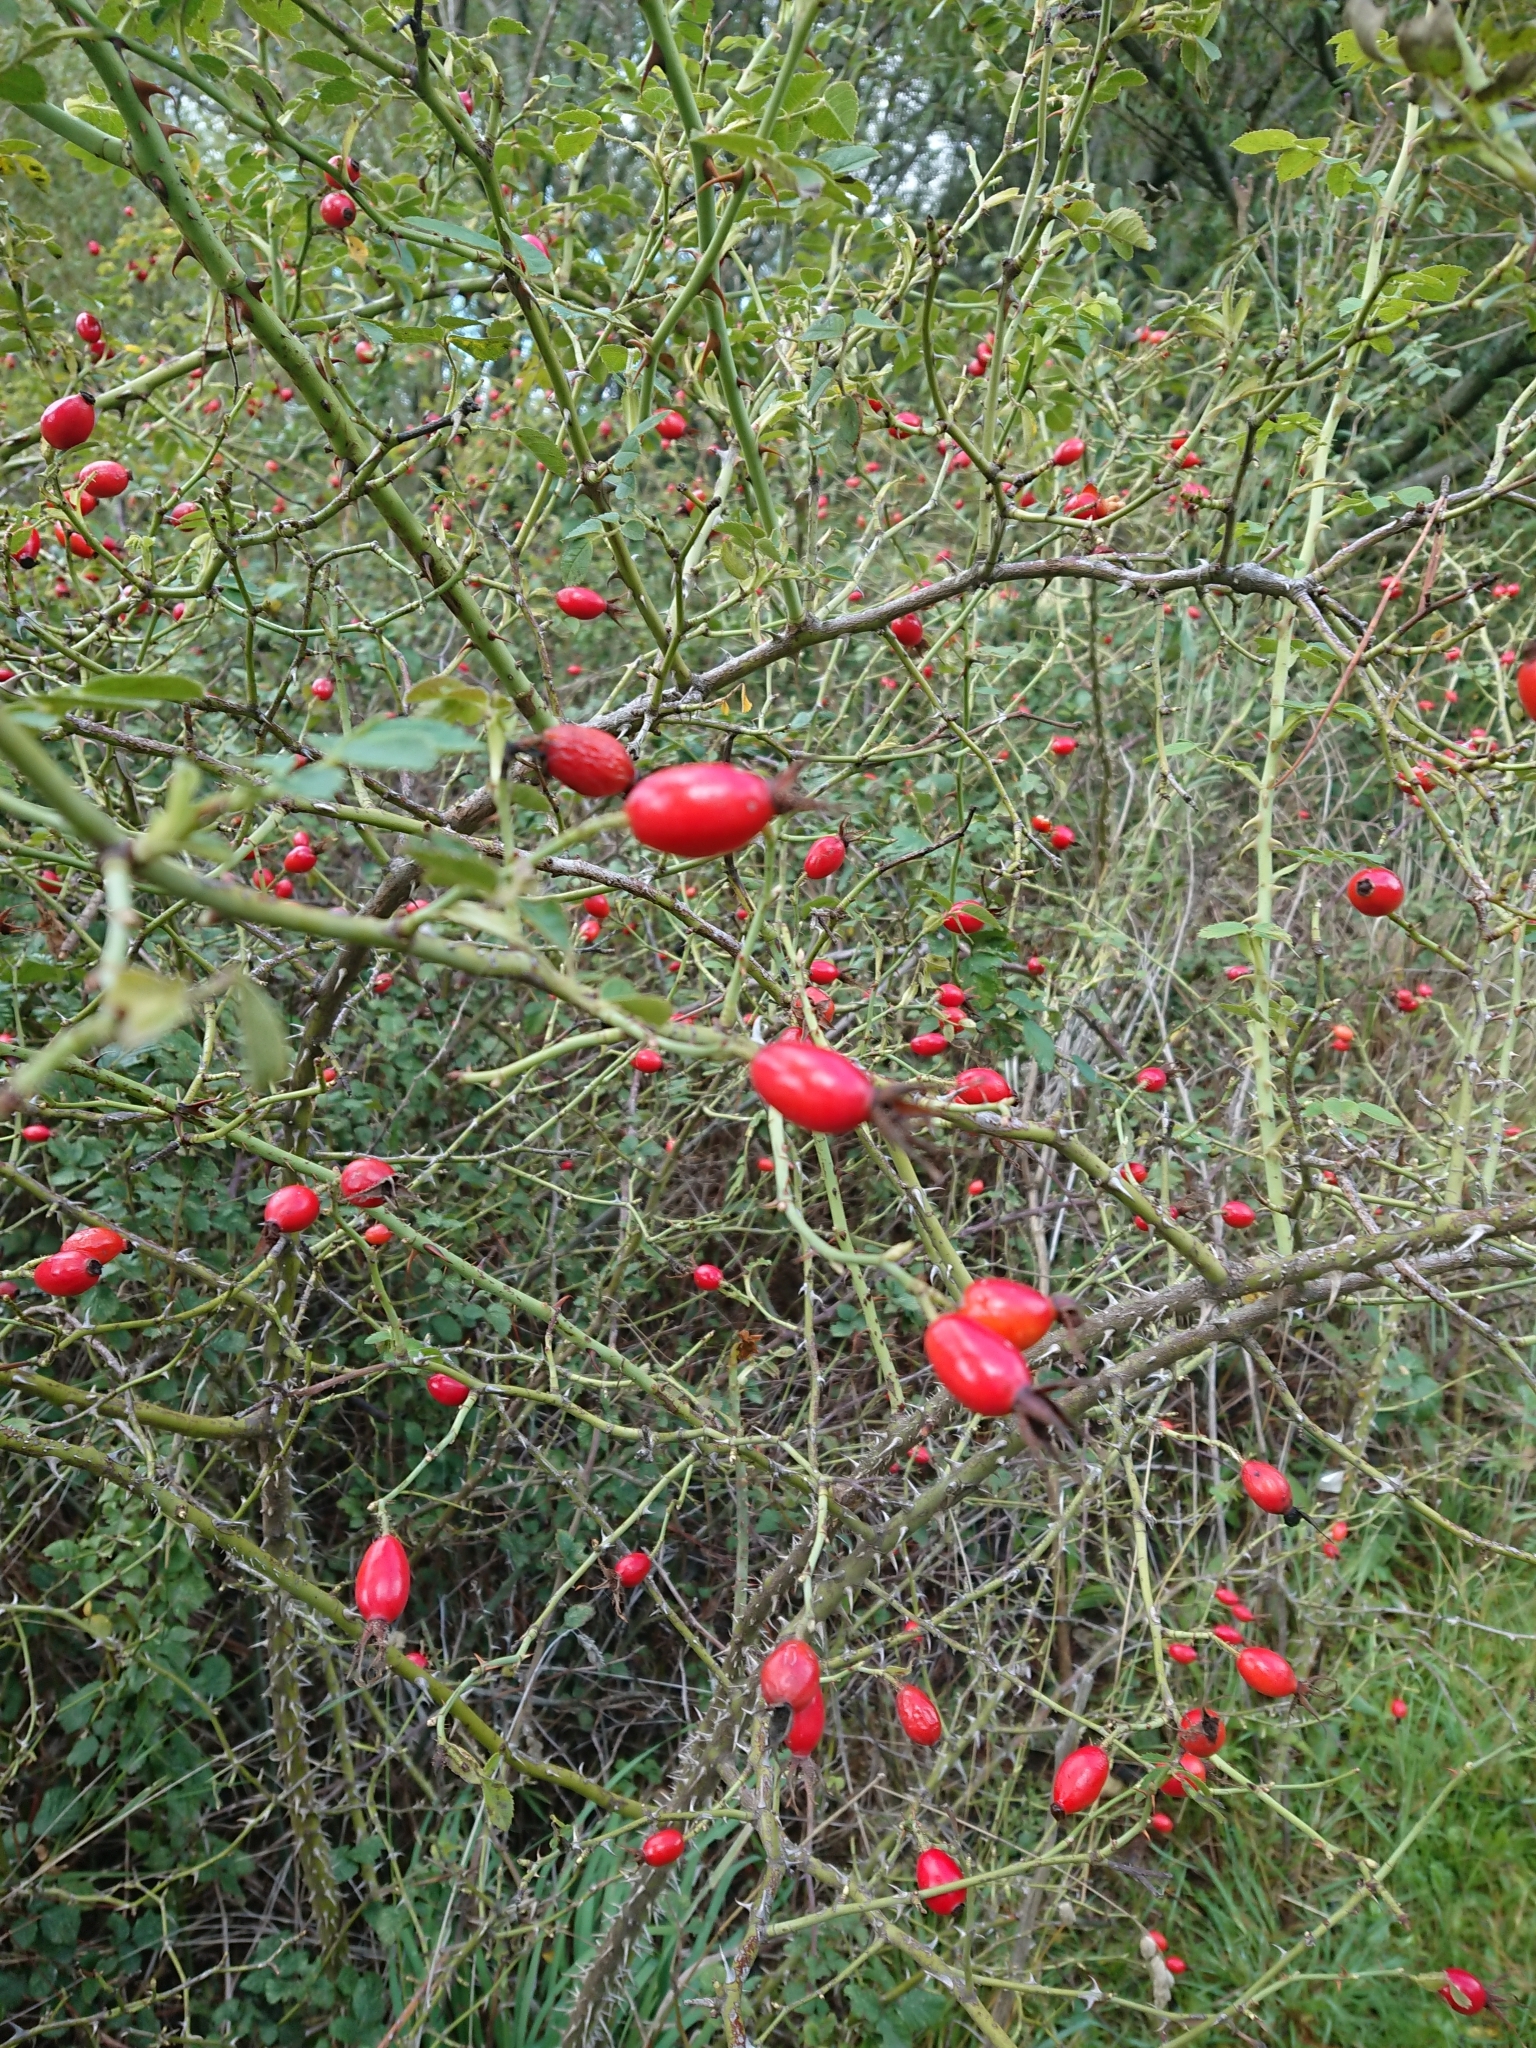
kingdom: Plantae
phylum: Tracheophyta
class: Magnoliopsida
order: Rosales
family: Rosaceae
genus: Rosa
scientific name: Rosa rubiginosa
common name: Sweet-briar
